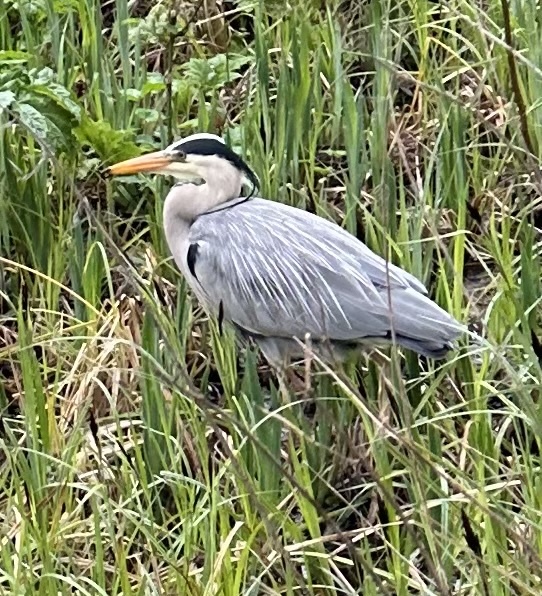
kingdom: Animalia
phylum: Chordata
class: Aves
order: Pelecaniformes
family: Ardeidae
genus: Ardea
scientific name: Ardea cinerea
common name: Grey heron
